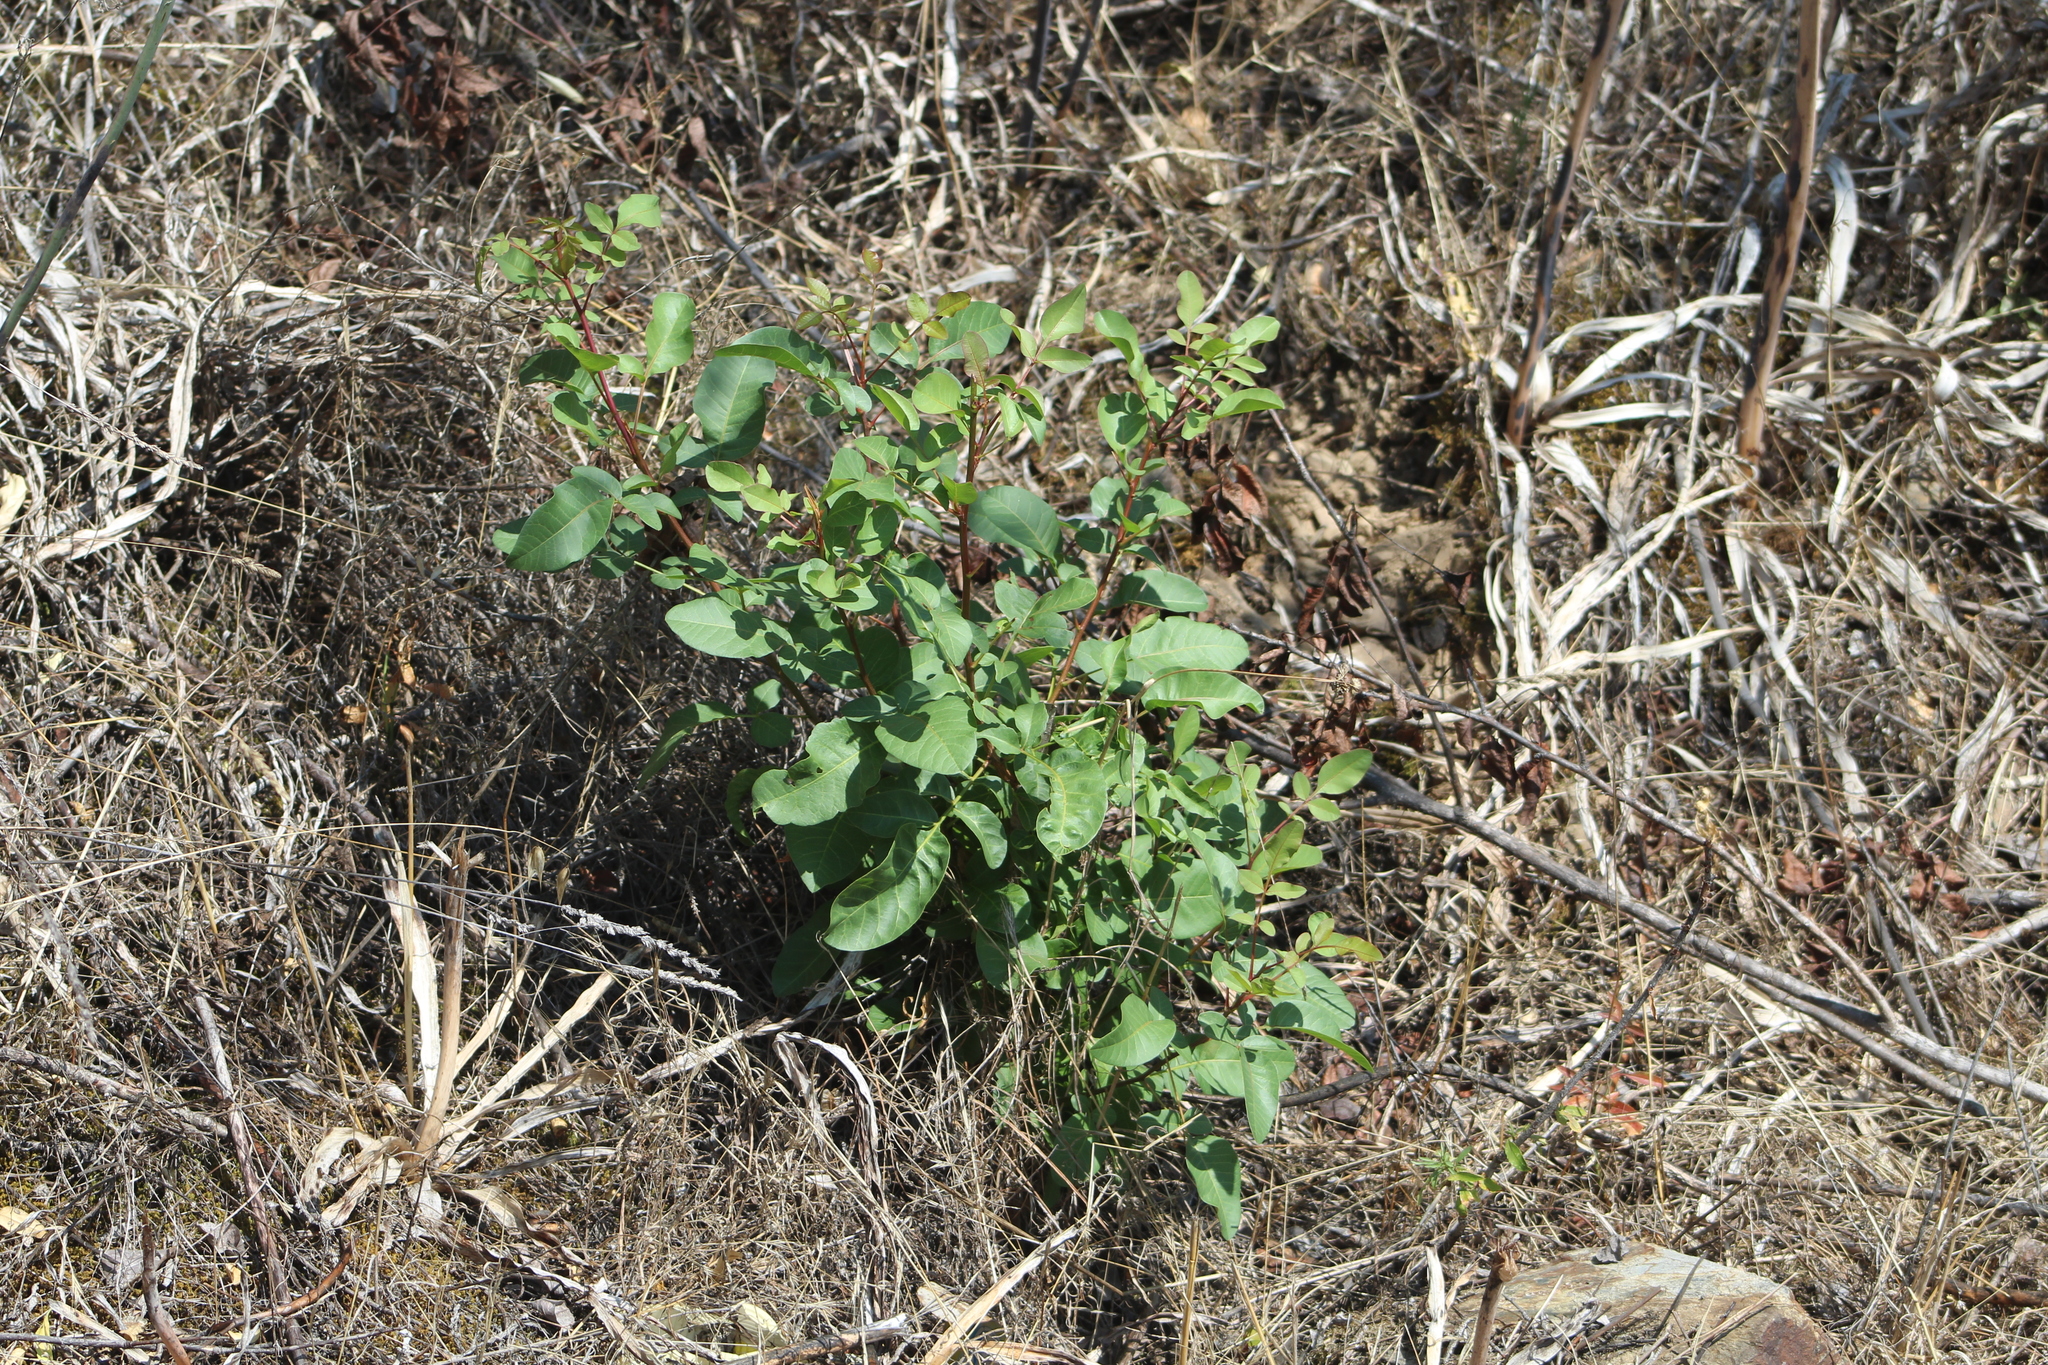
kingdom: Plantae
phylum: Tracheophyta
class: Magnoliopsida
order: Sapindales
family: Anacardiaceae
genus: Pistacia
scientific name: Pistacia terebinthus
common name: Terebinth
